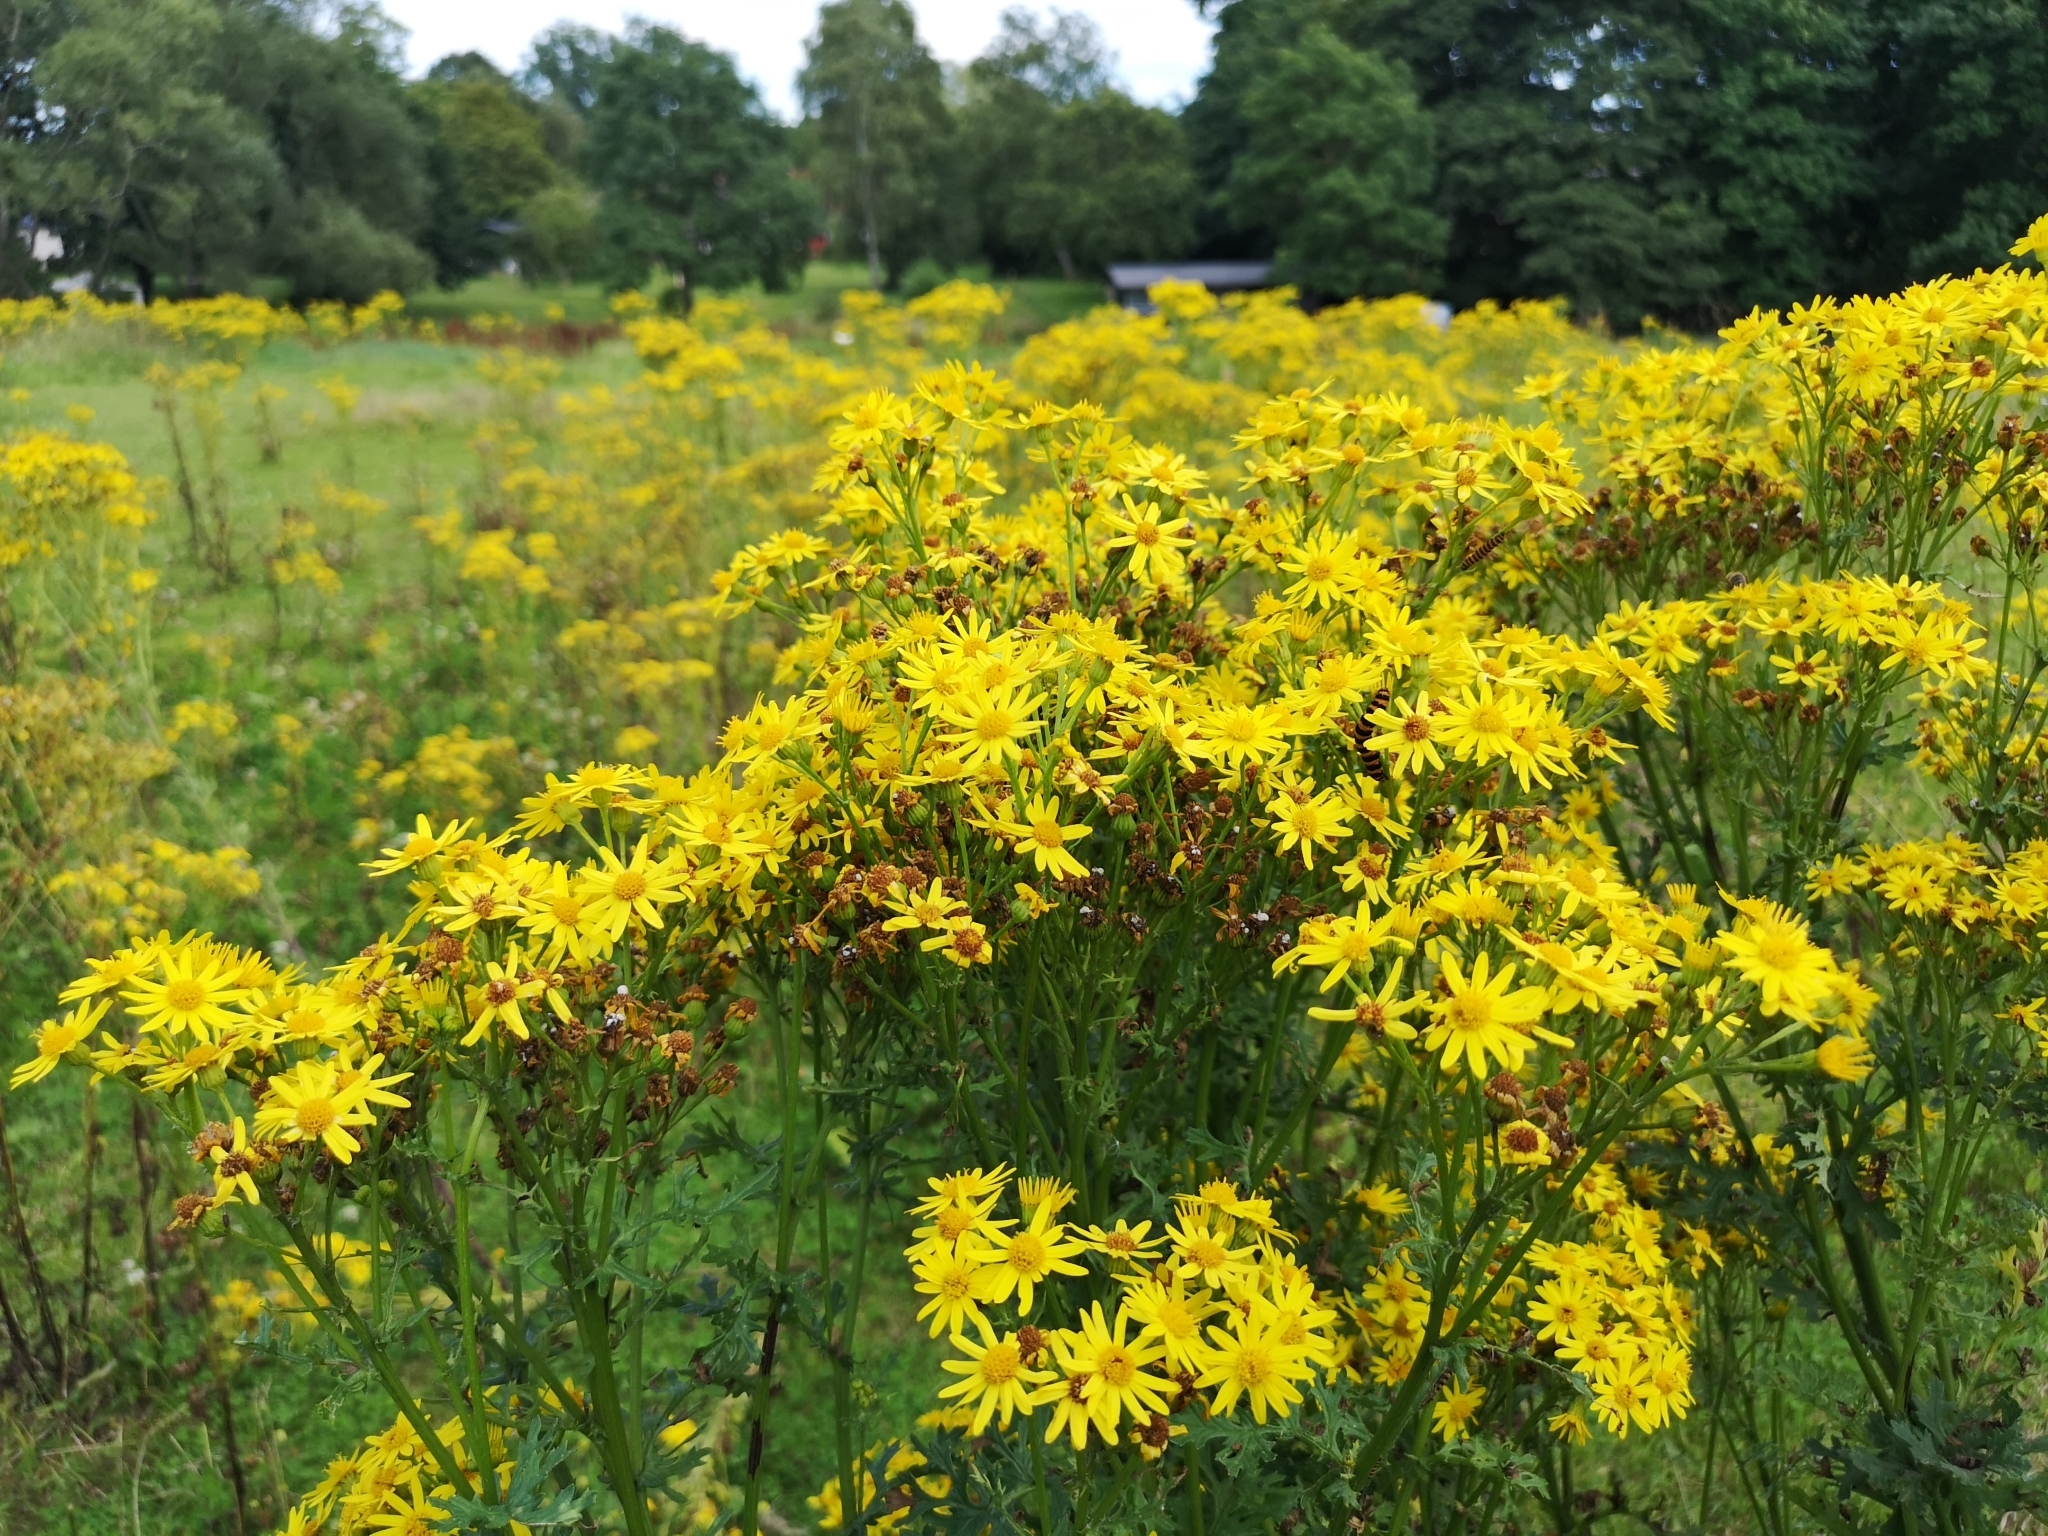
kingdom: Plantae
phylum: Tracheophyta
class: Magnoliopsida
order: Asterales
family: Asteraceae
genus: Jacobaea
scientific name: Jacobaea vulgaris
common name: Stinking willie
